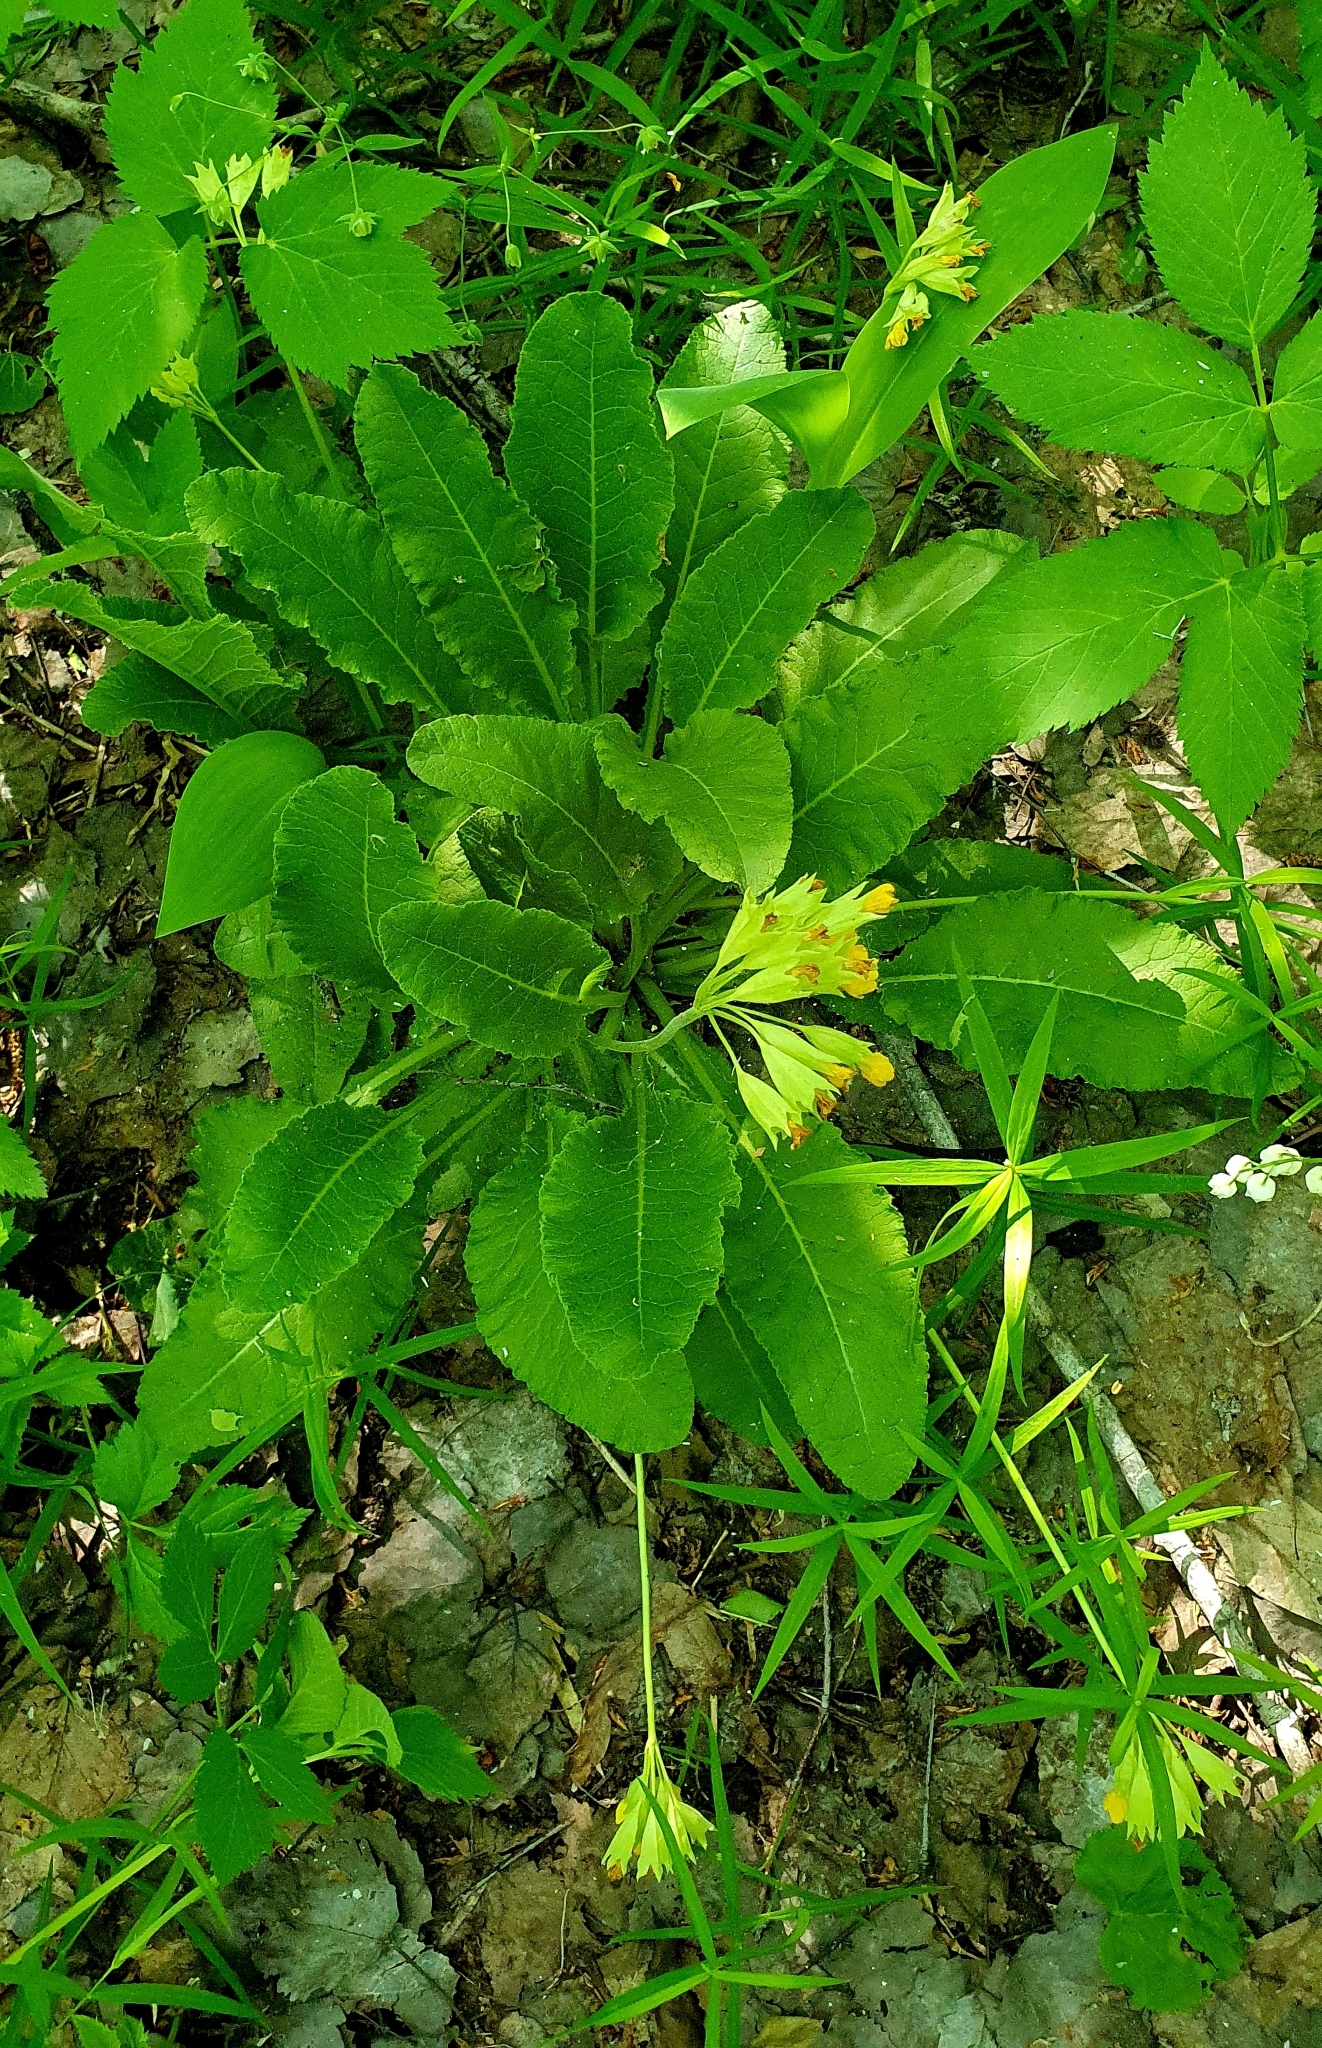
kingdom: Plantae
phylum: Tracheophyta
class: Magnoliopsida
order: Ericales
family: Primulaceae
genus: Primula
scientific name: Primula veris
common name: Cowslip
